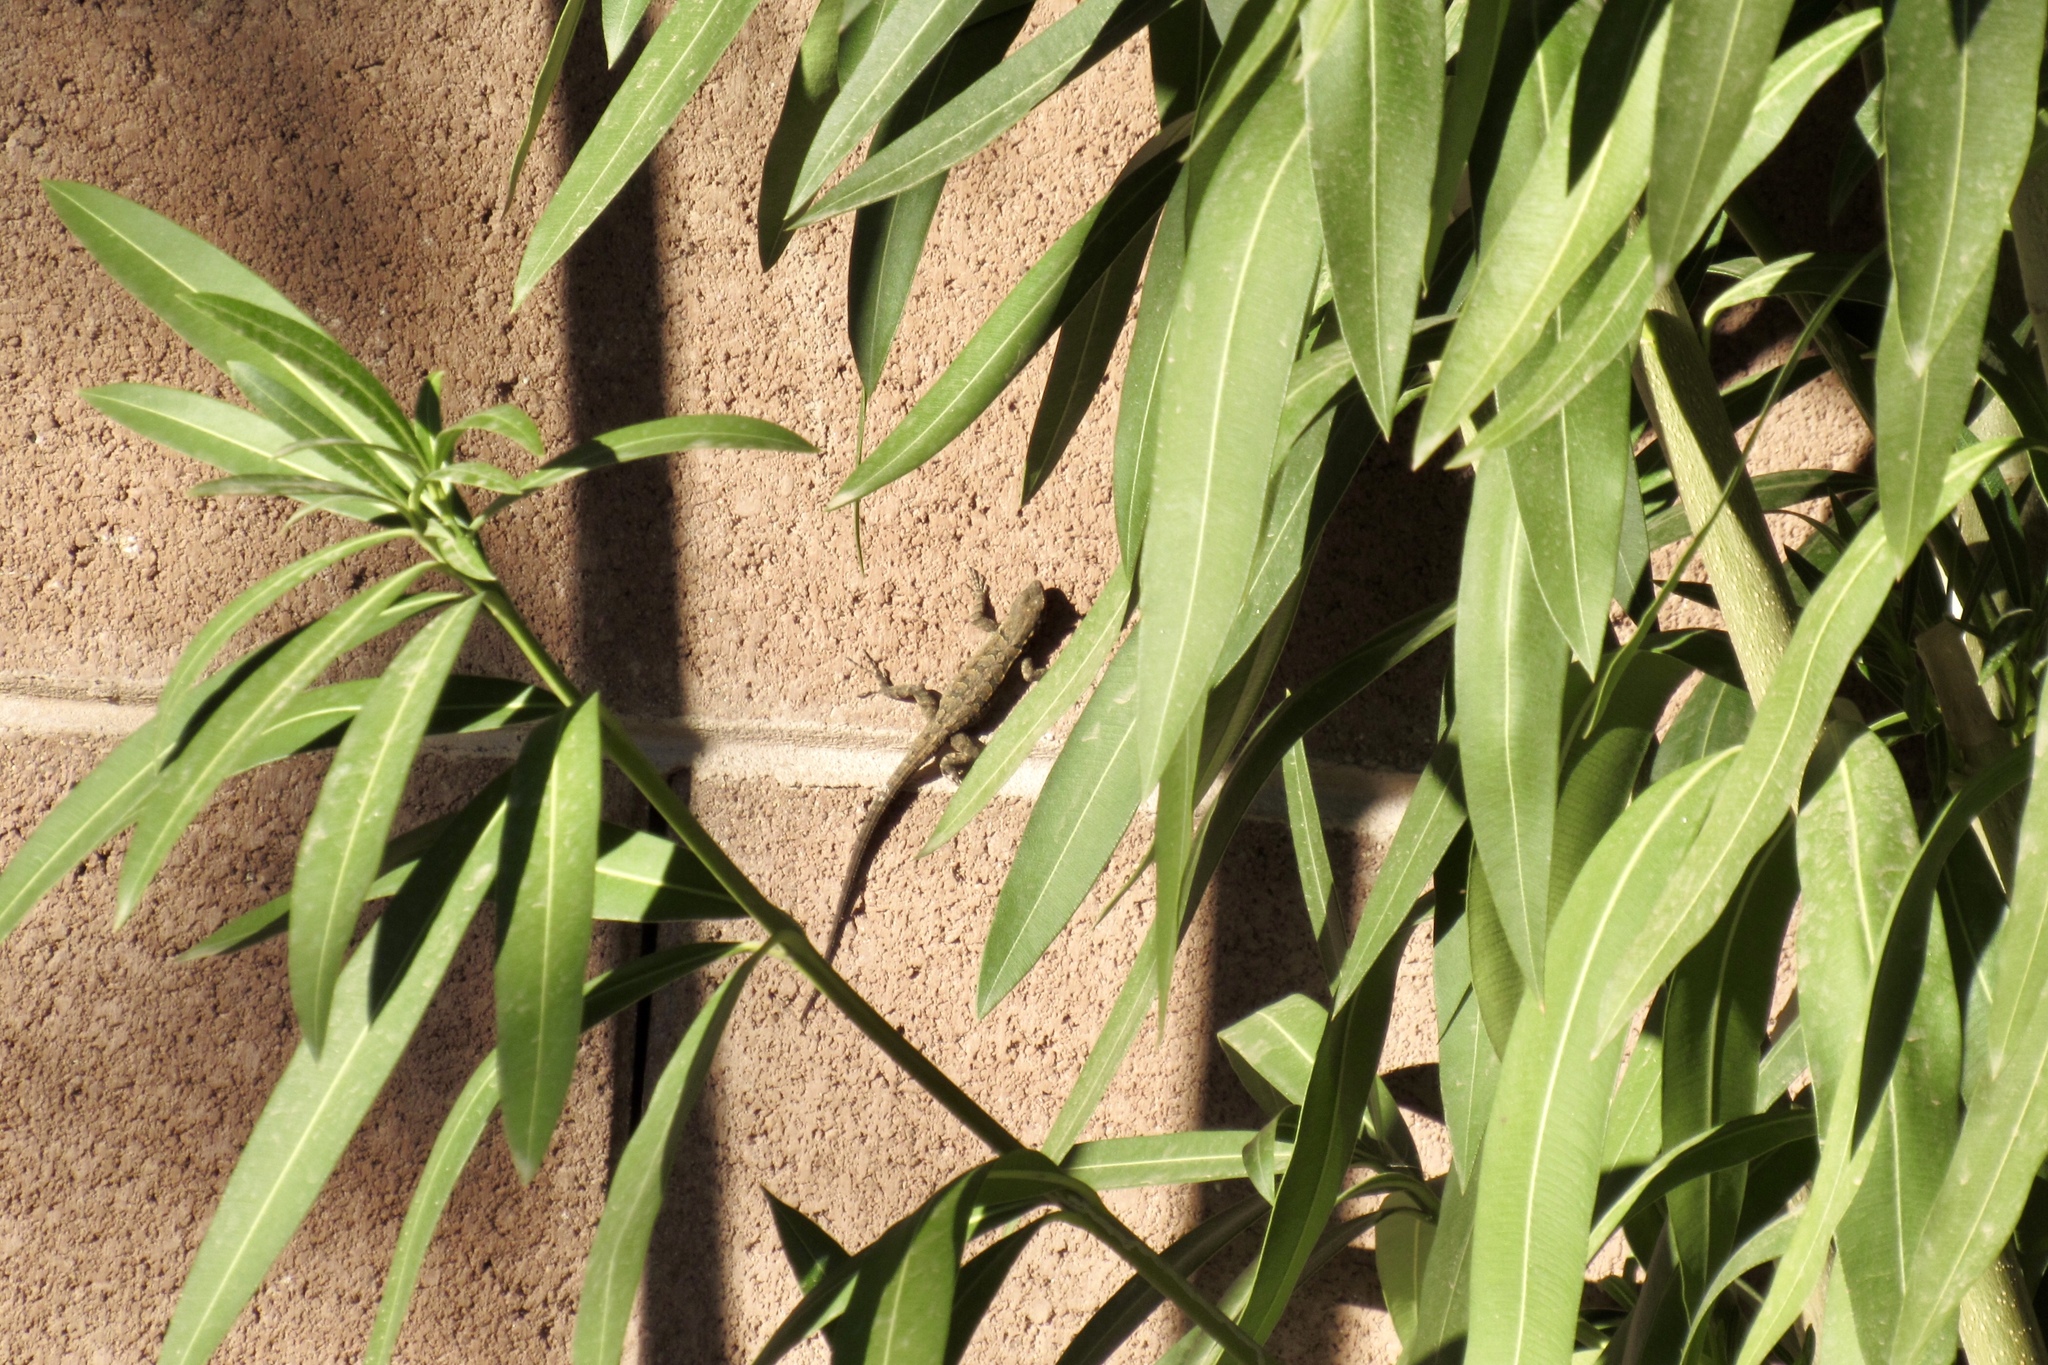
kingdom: Animalia
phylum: Chordata
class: Squamata
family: Phrynosomatidae
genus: Urosaurus
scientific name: Urosaurus ornatus
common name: Ornate tree lizard
